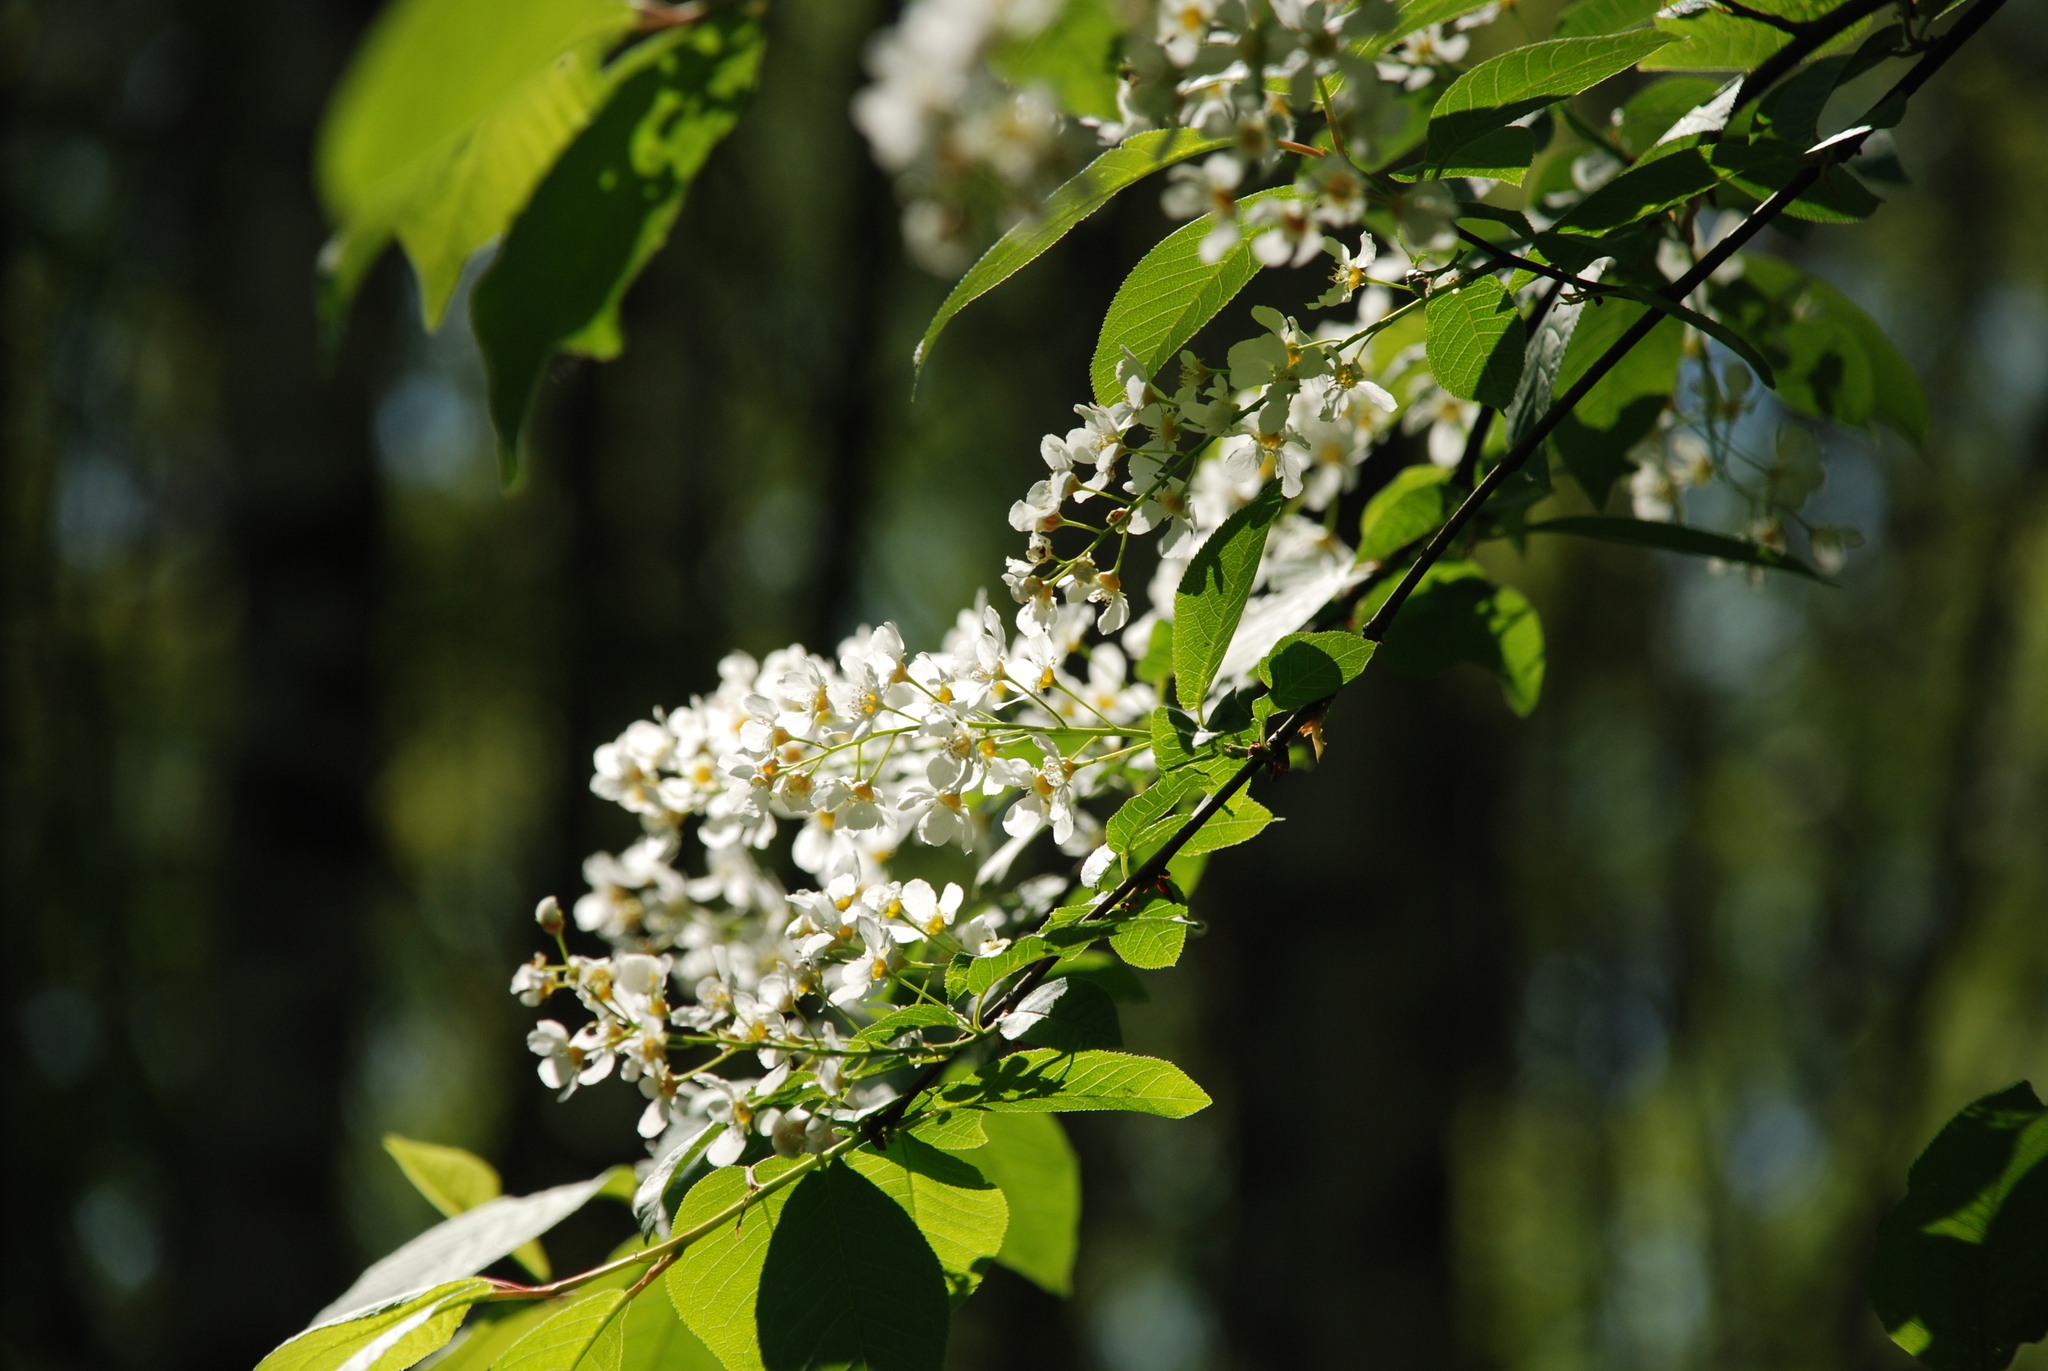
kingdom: Plantae
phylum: Tracheophyta
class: Magnoliopsida
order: Rosales
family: Rosaceae
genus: Prunus
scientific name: Prunus padus
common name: Bird cherry
